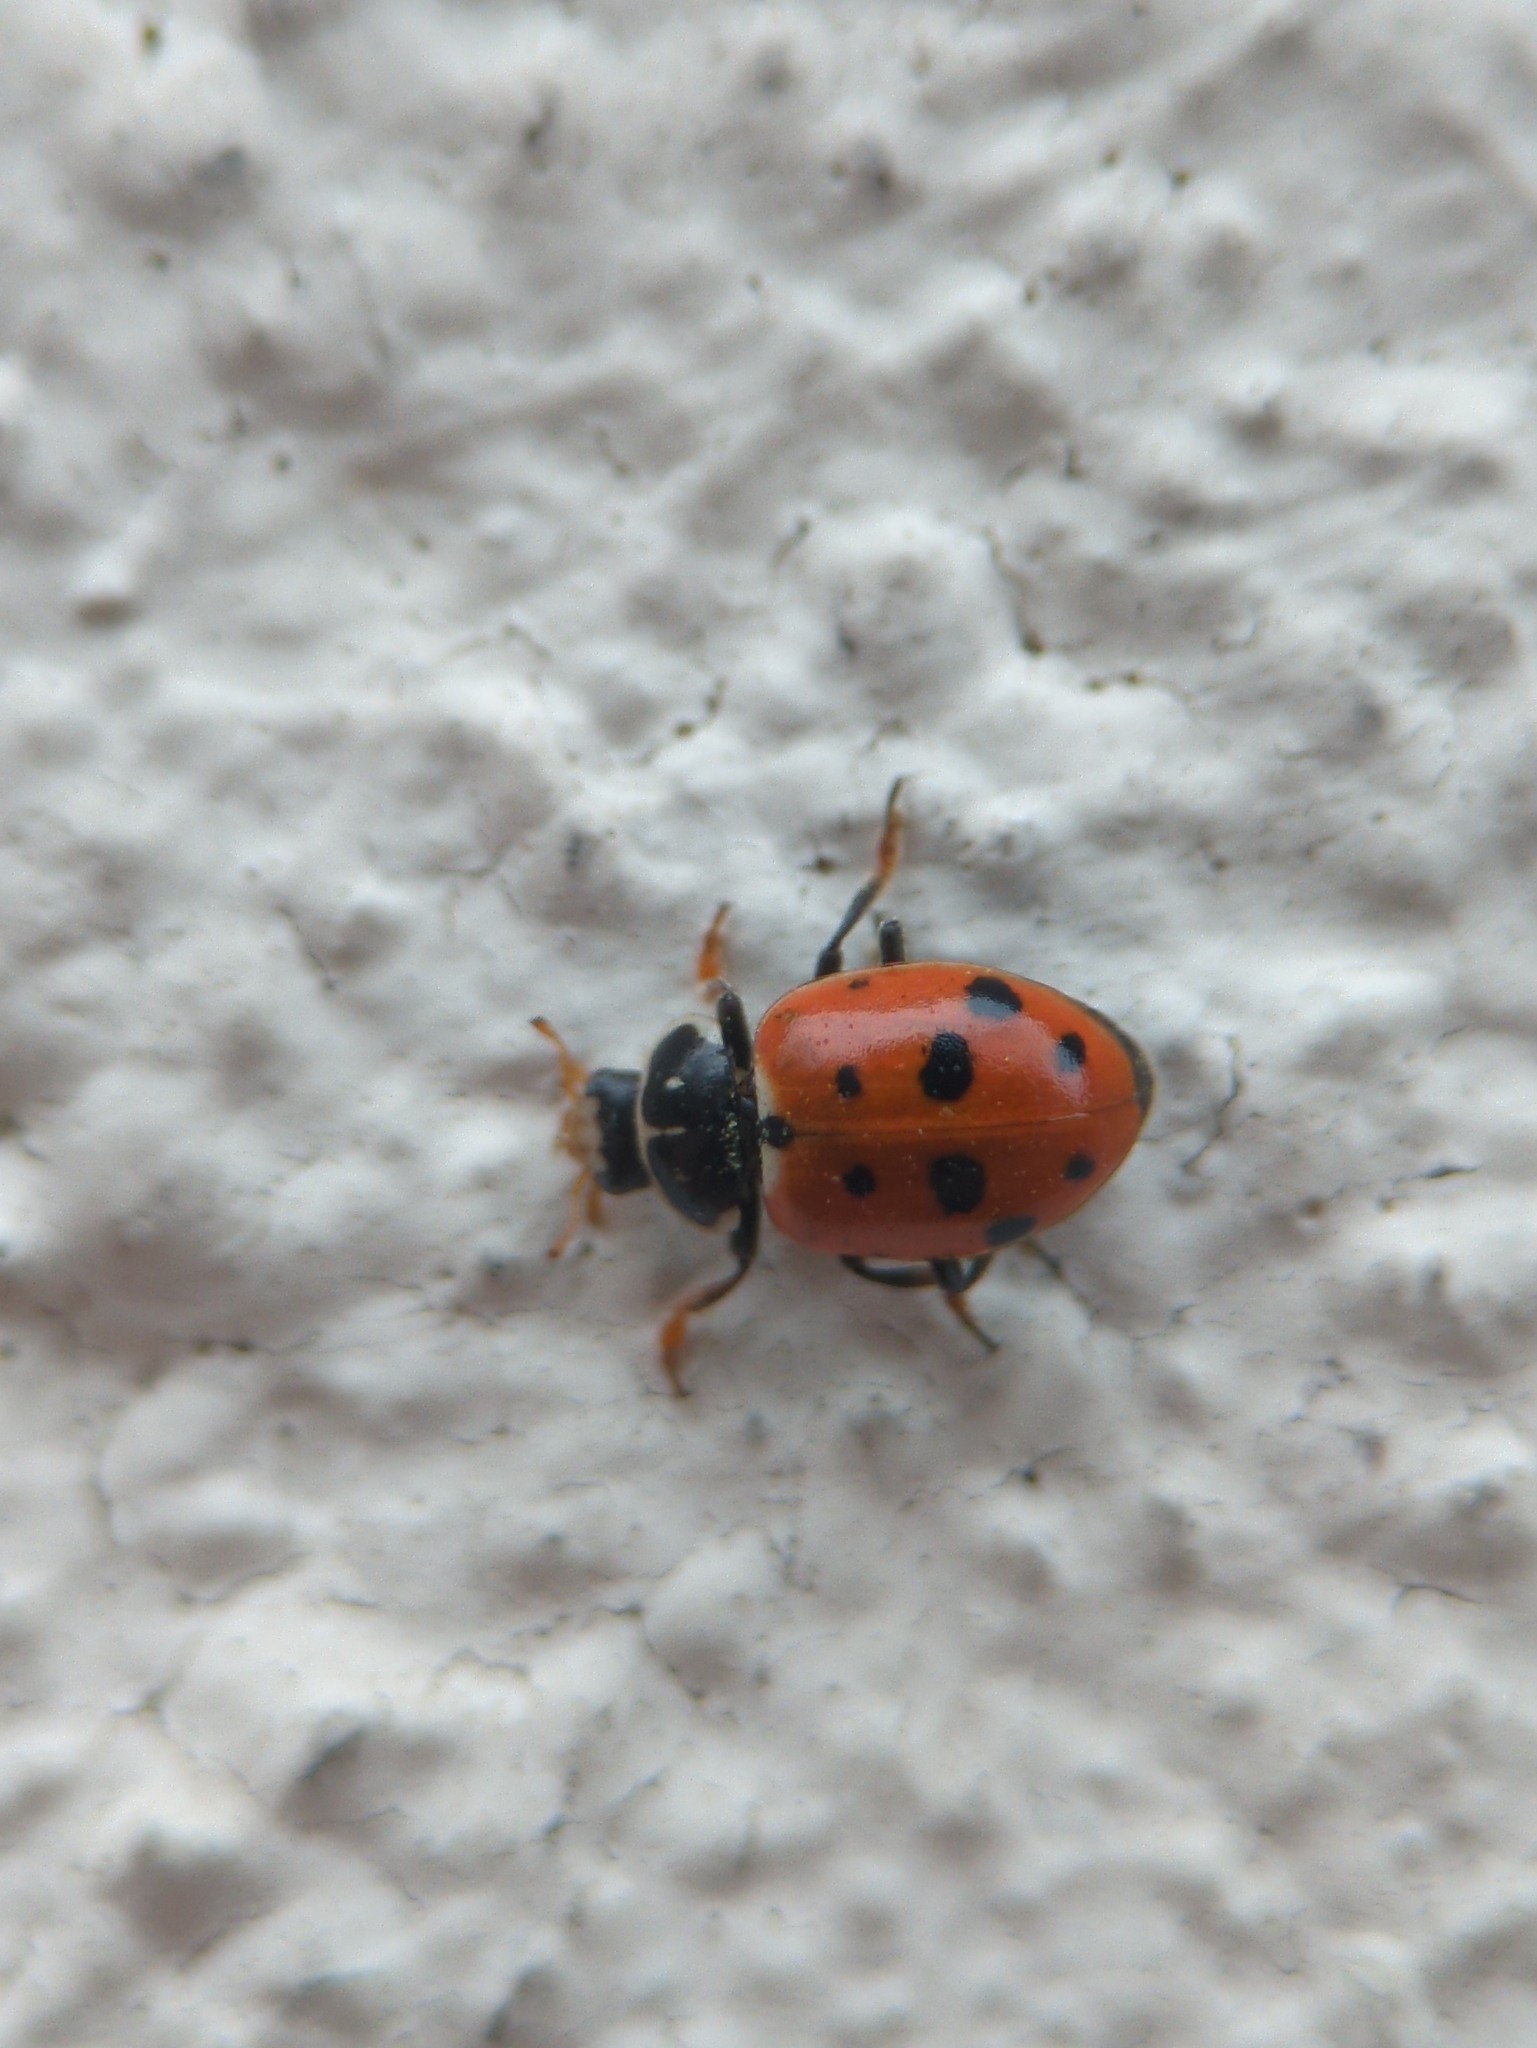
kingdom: Animalia
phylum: Arthropoda
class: Insecta
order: Coleoptera
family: Coccinellidae
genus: Hippodamia
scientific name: Hippodamia variegata
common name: Ladybird beetle
